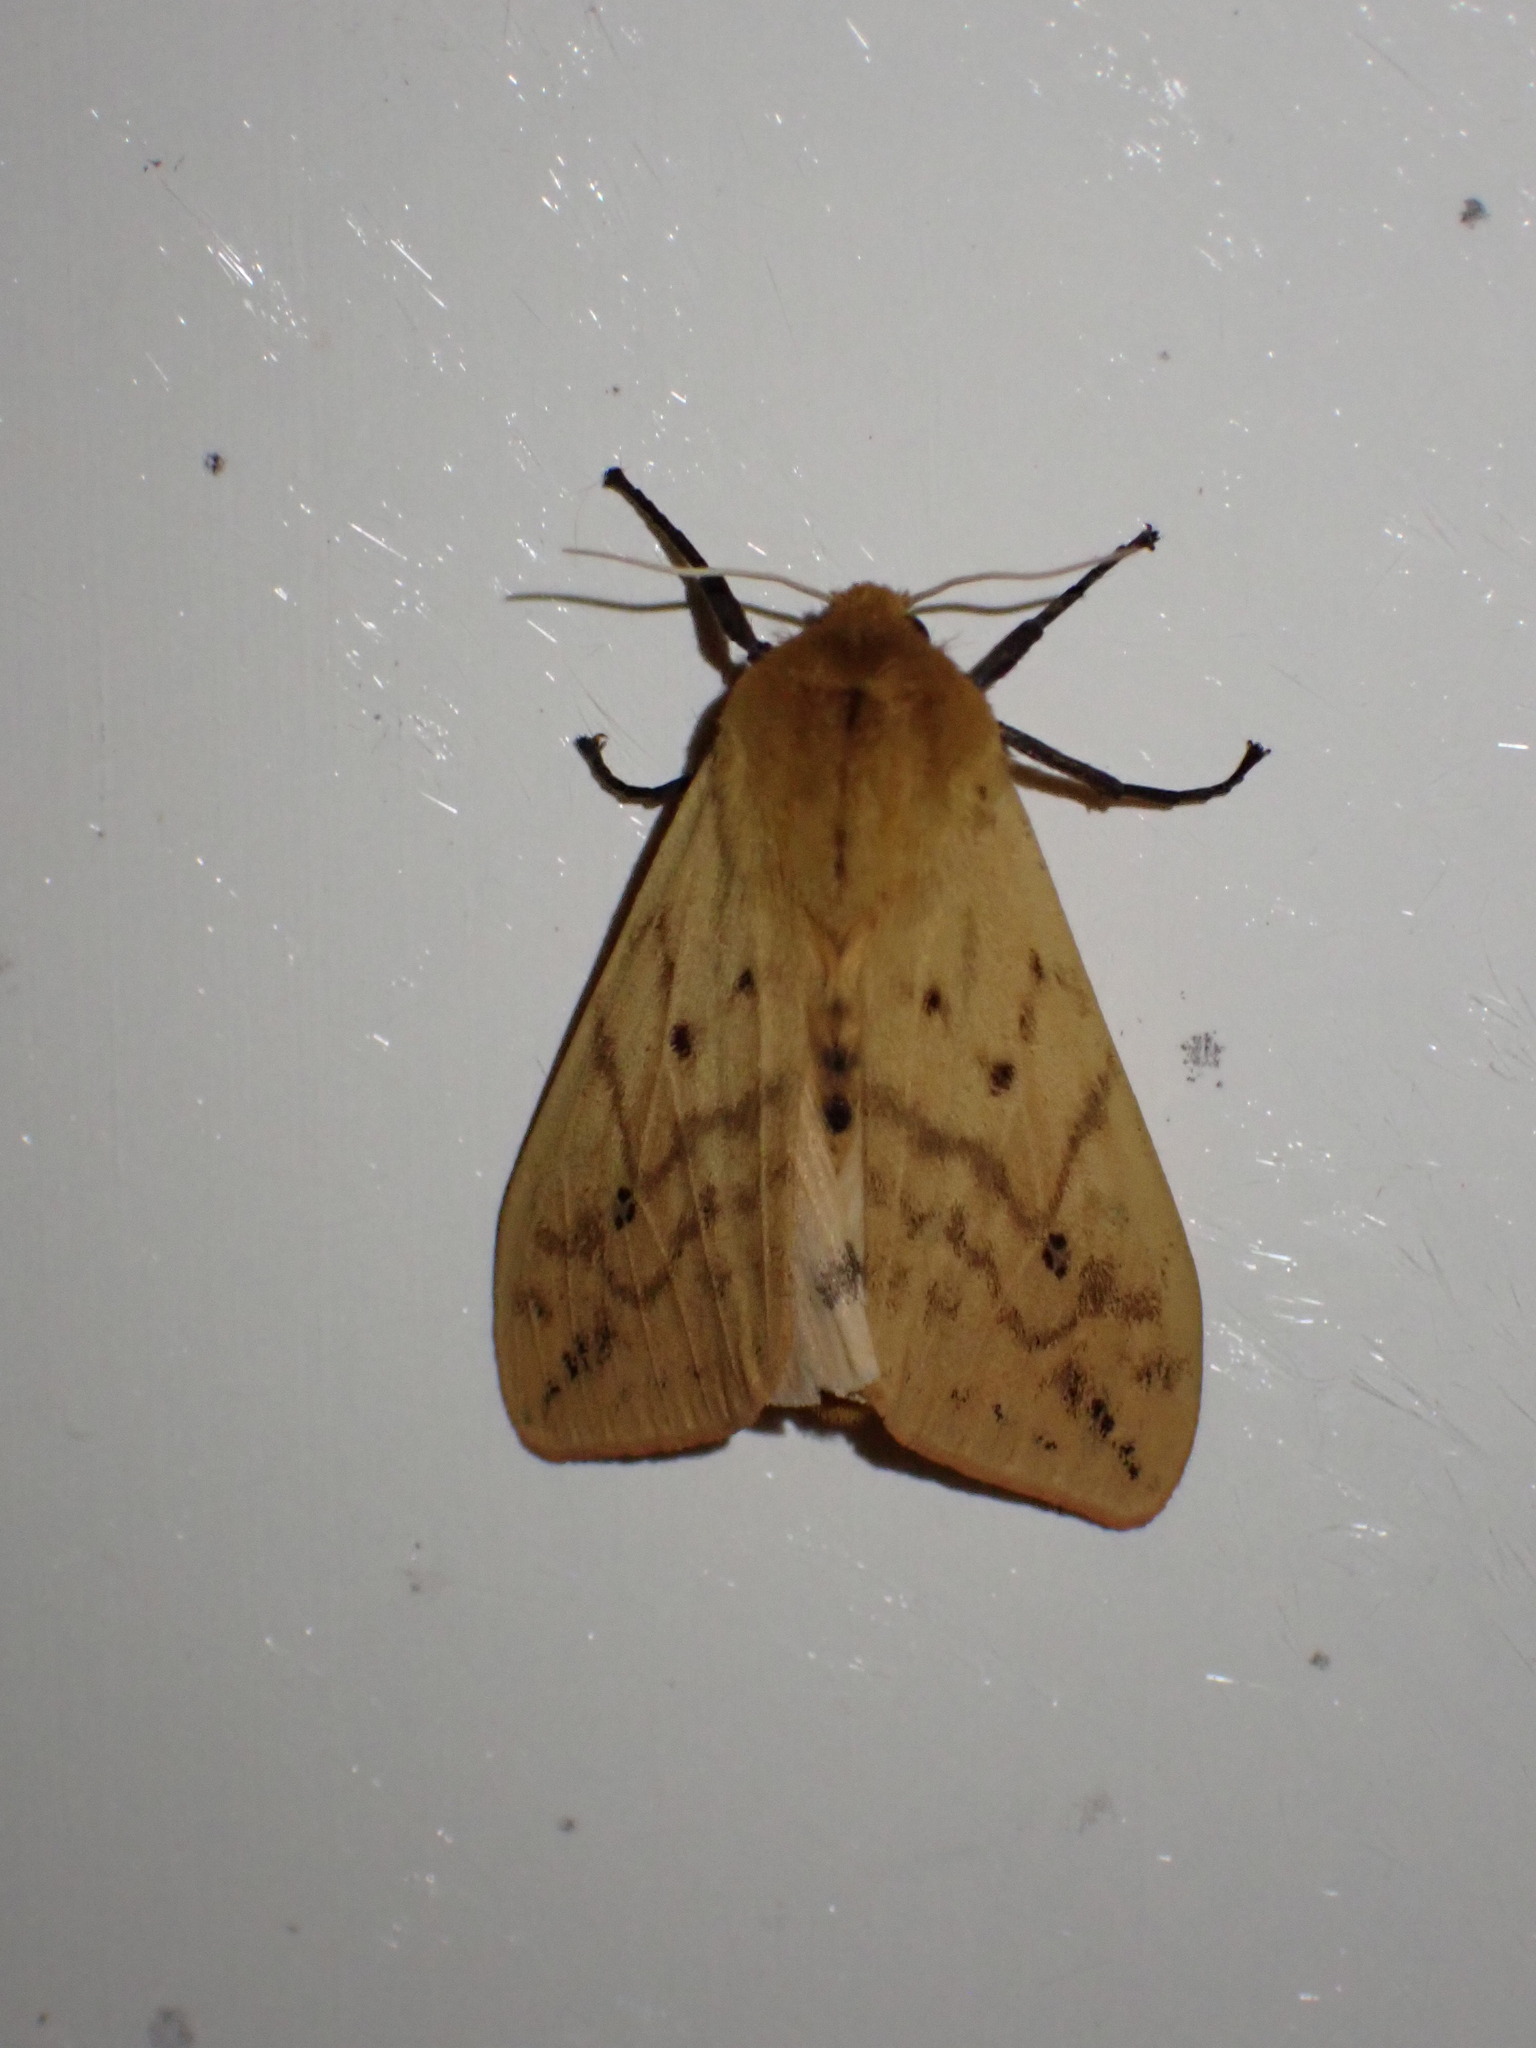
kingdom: Animalia
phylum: Arthropoda
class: Insecta
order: Lepidoptera
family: Erebidae
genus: Pyrrharctia
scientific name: Pyrrharctia isabella
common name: Isabella tiger moth
